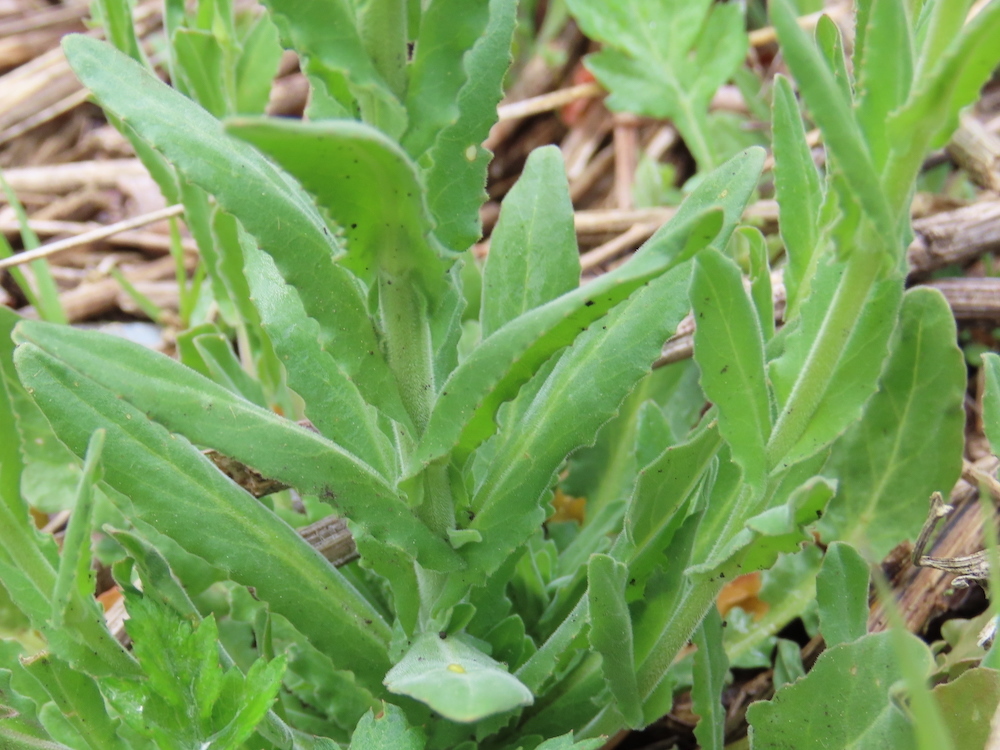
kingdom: Plantae
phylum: Tracheophyta
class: Magnoliopsida
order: Brassicales
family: Brassicaceae
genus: Lepidium
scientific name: Lepidium campestre
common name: Field pepperwort
